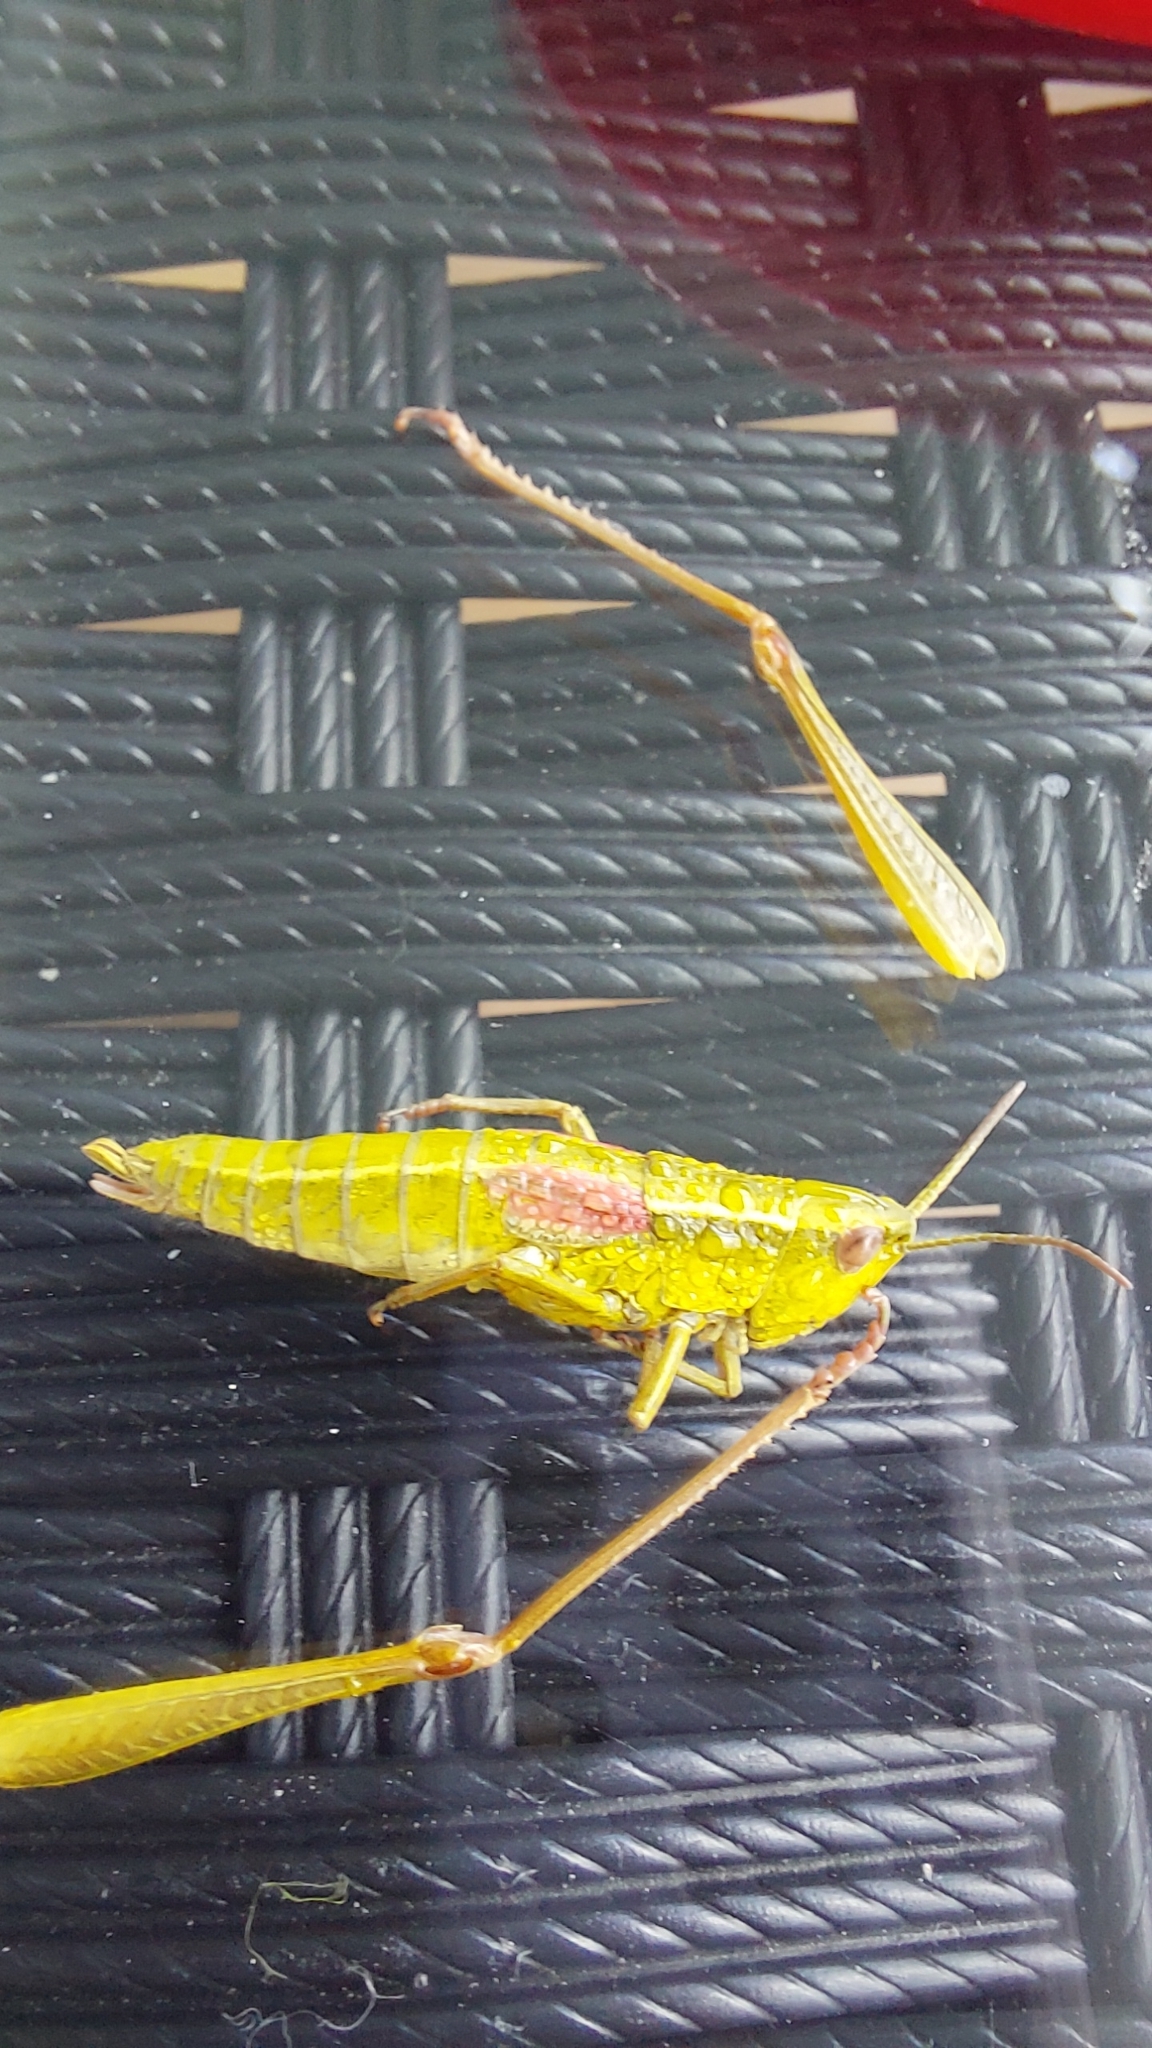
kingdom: Animalia
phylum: Arthropoda
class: Insecta
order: Orthoptera
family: Acrididae
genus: Euthystira
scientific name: Euthystira brachyptera
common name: Small gold grasshopper
